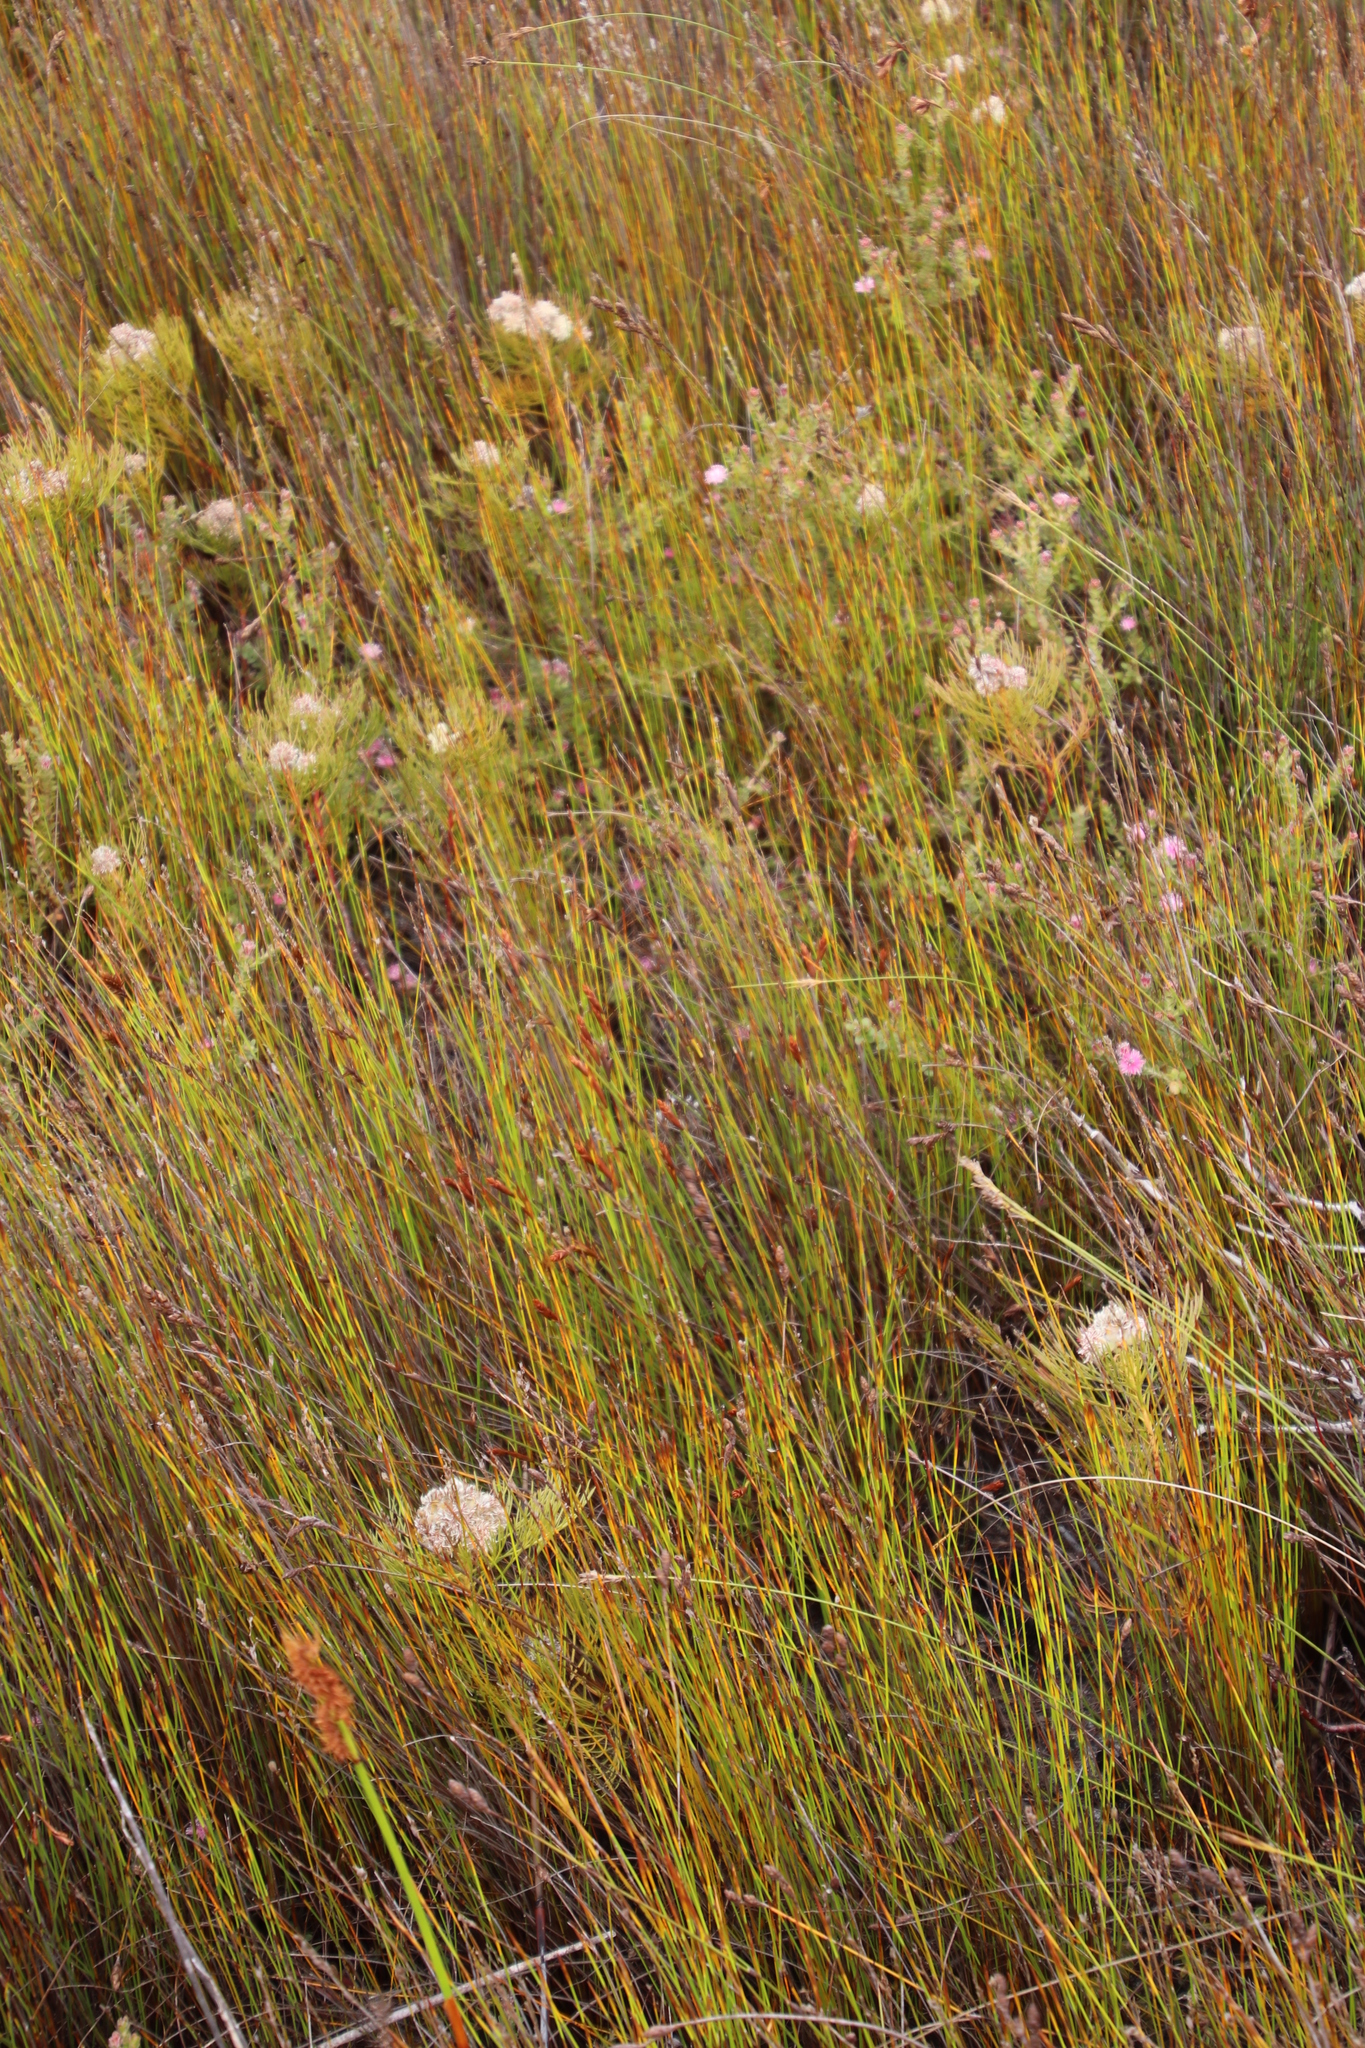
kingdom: Plantae
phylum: Tracheophyta
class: Liliopsida
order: Poales
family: Restionaceae
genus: Elegia
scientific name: Elegia filacea
